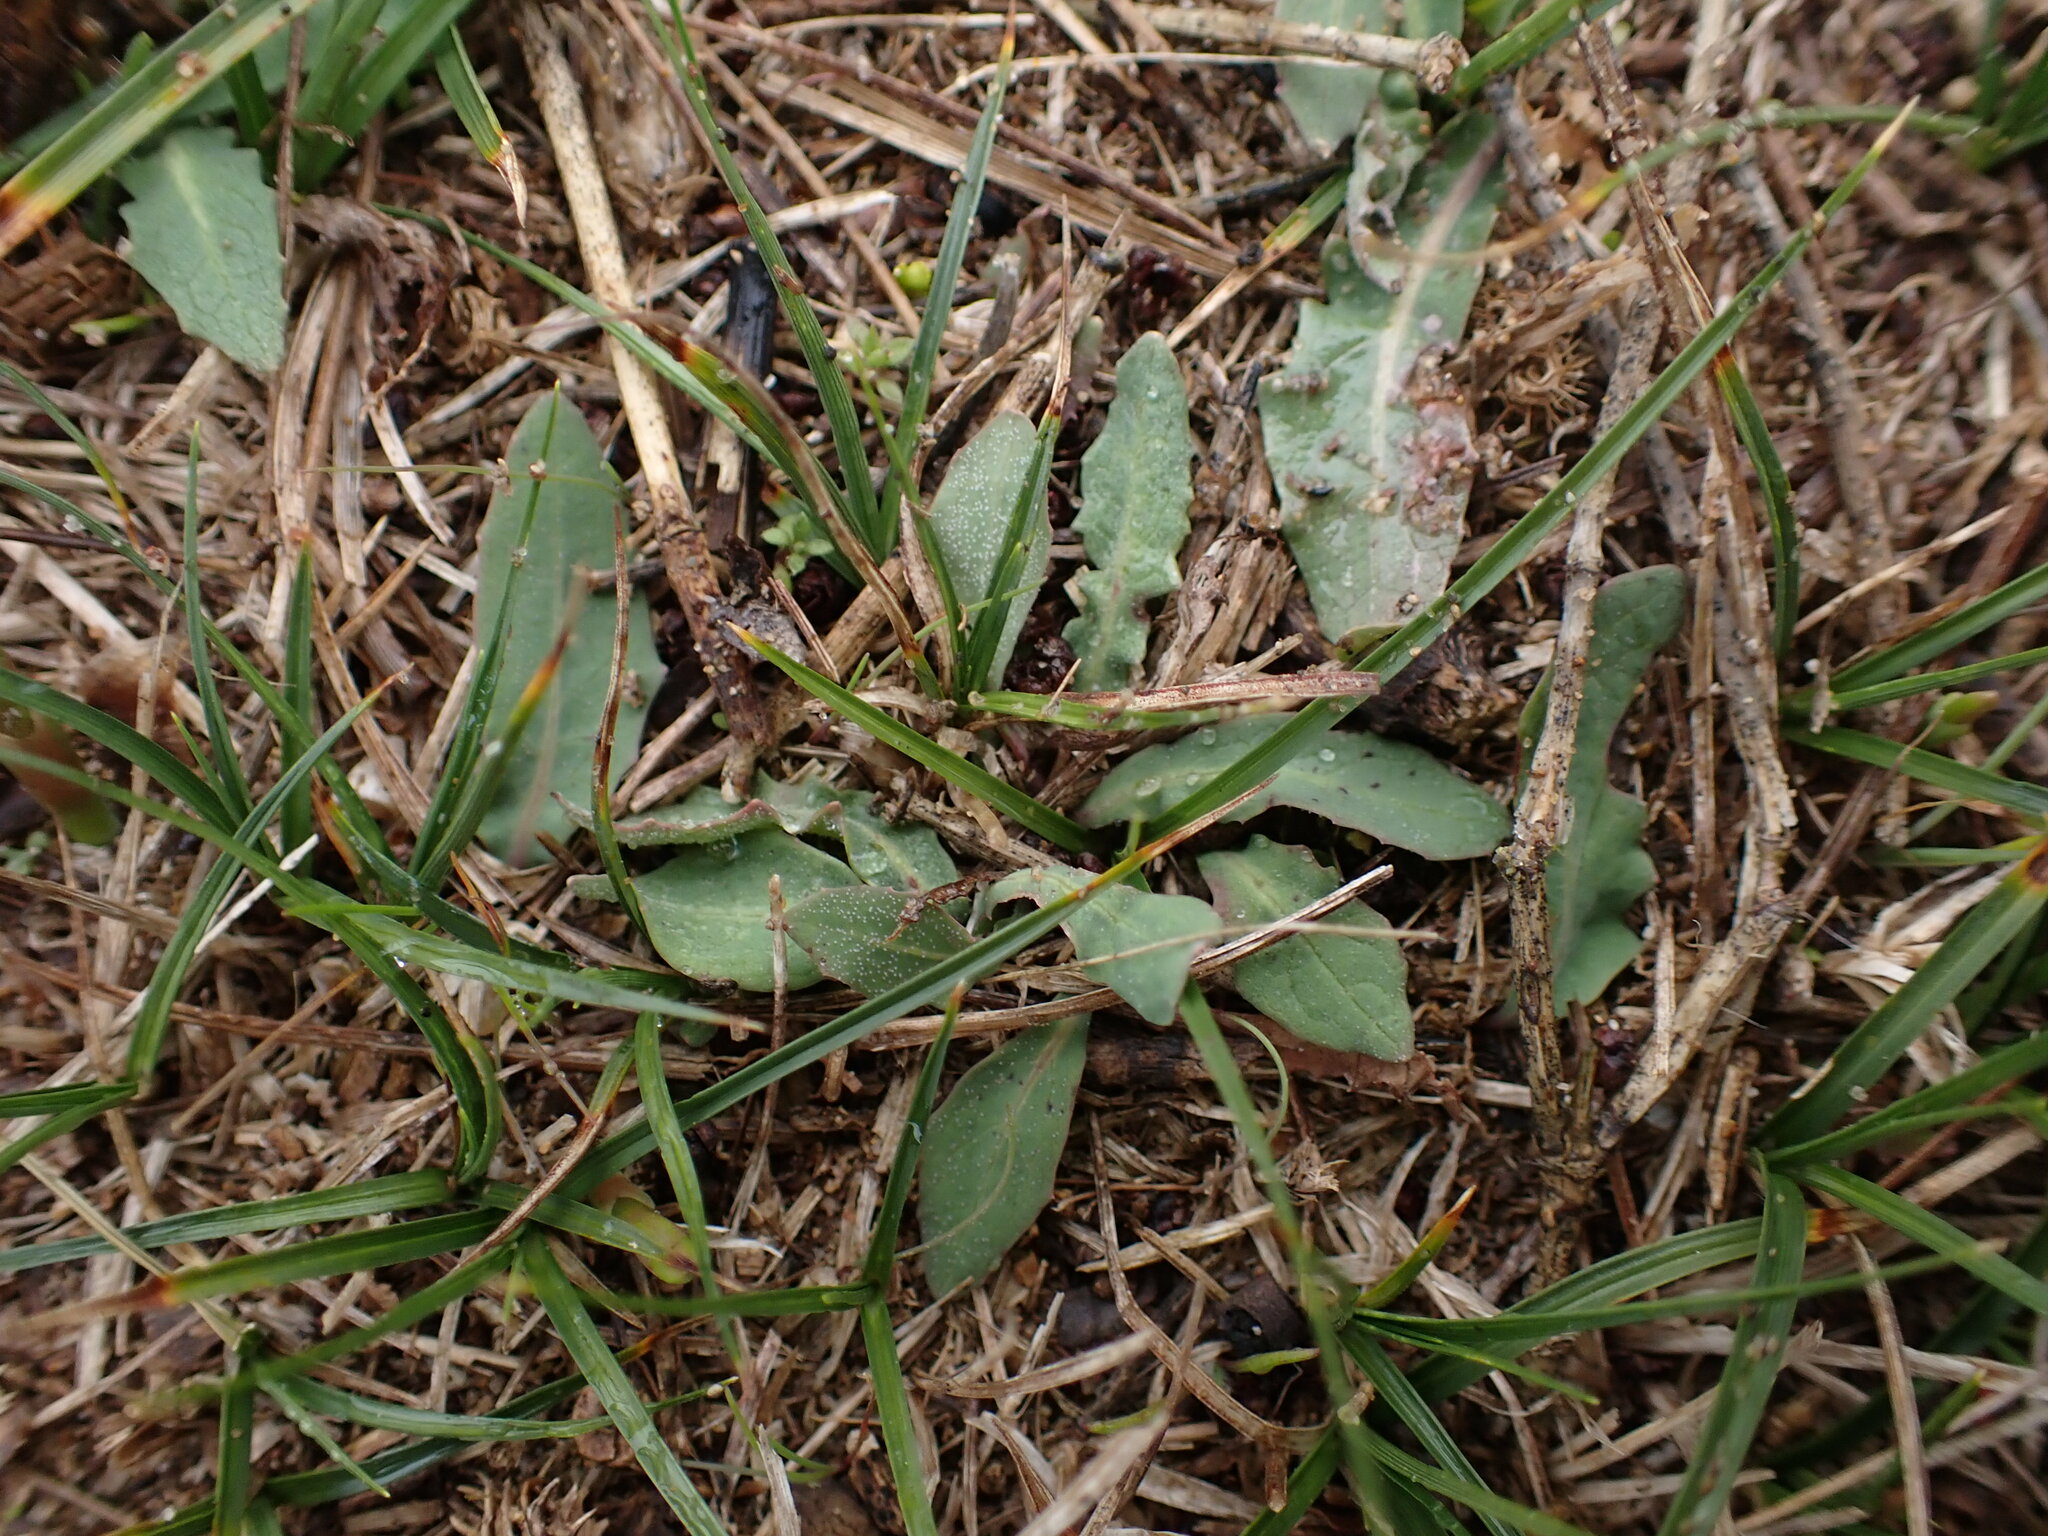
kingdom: Plantae
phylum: Tracheophyta
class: Magnoliopsida
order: Asterales
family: Asteraceae
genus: Aetheorhiza
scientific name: Aetheorhiza bulbosa
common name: Tuberous hawk's-beard
